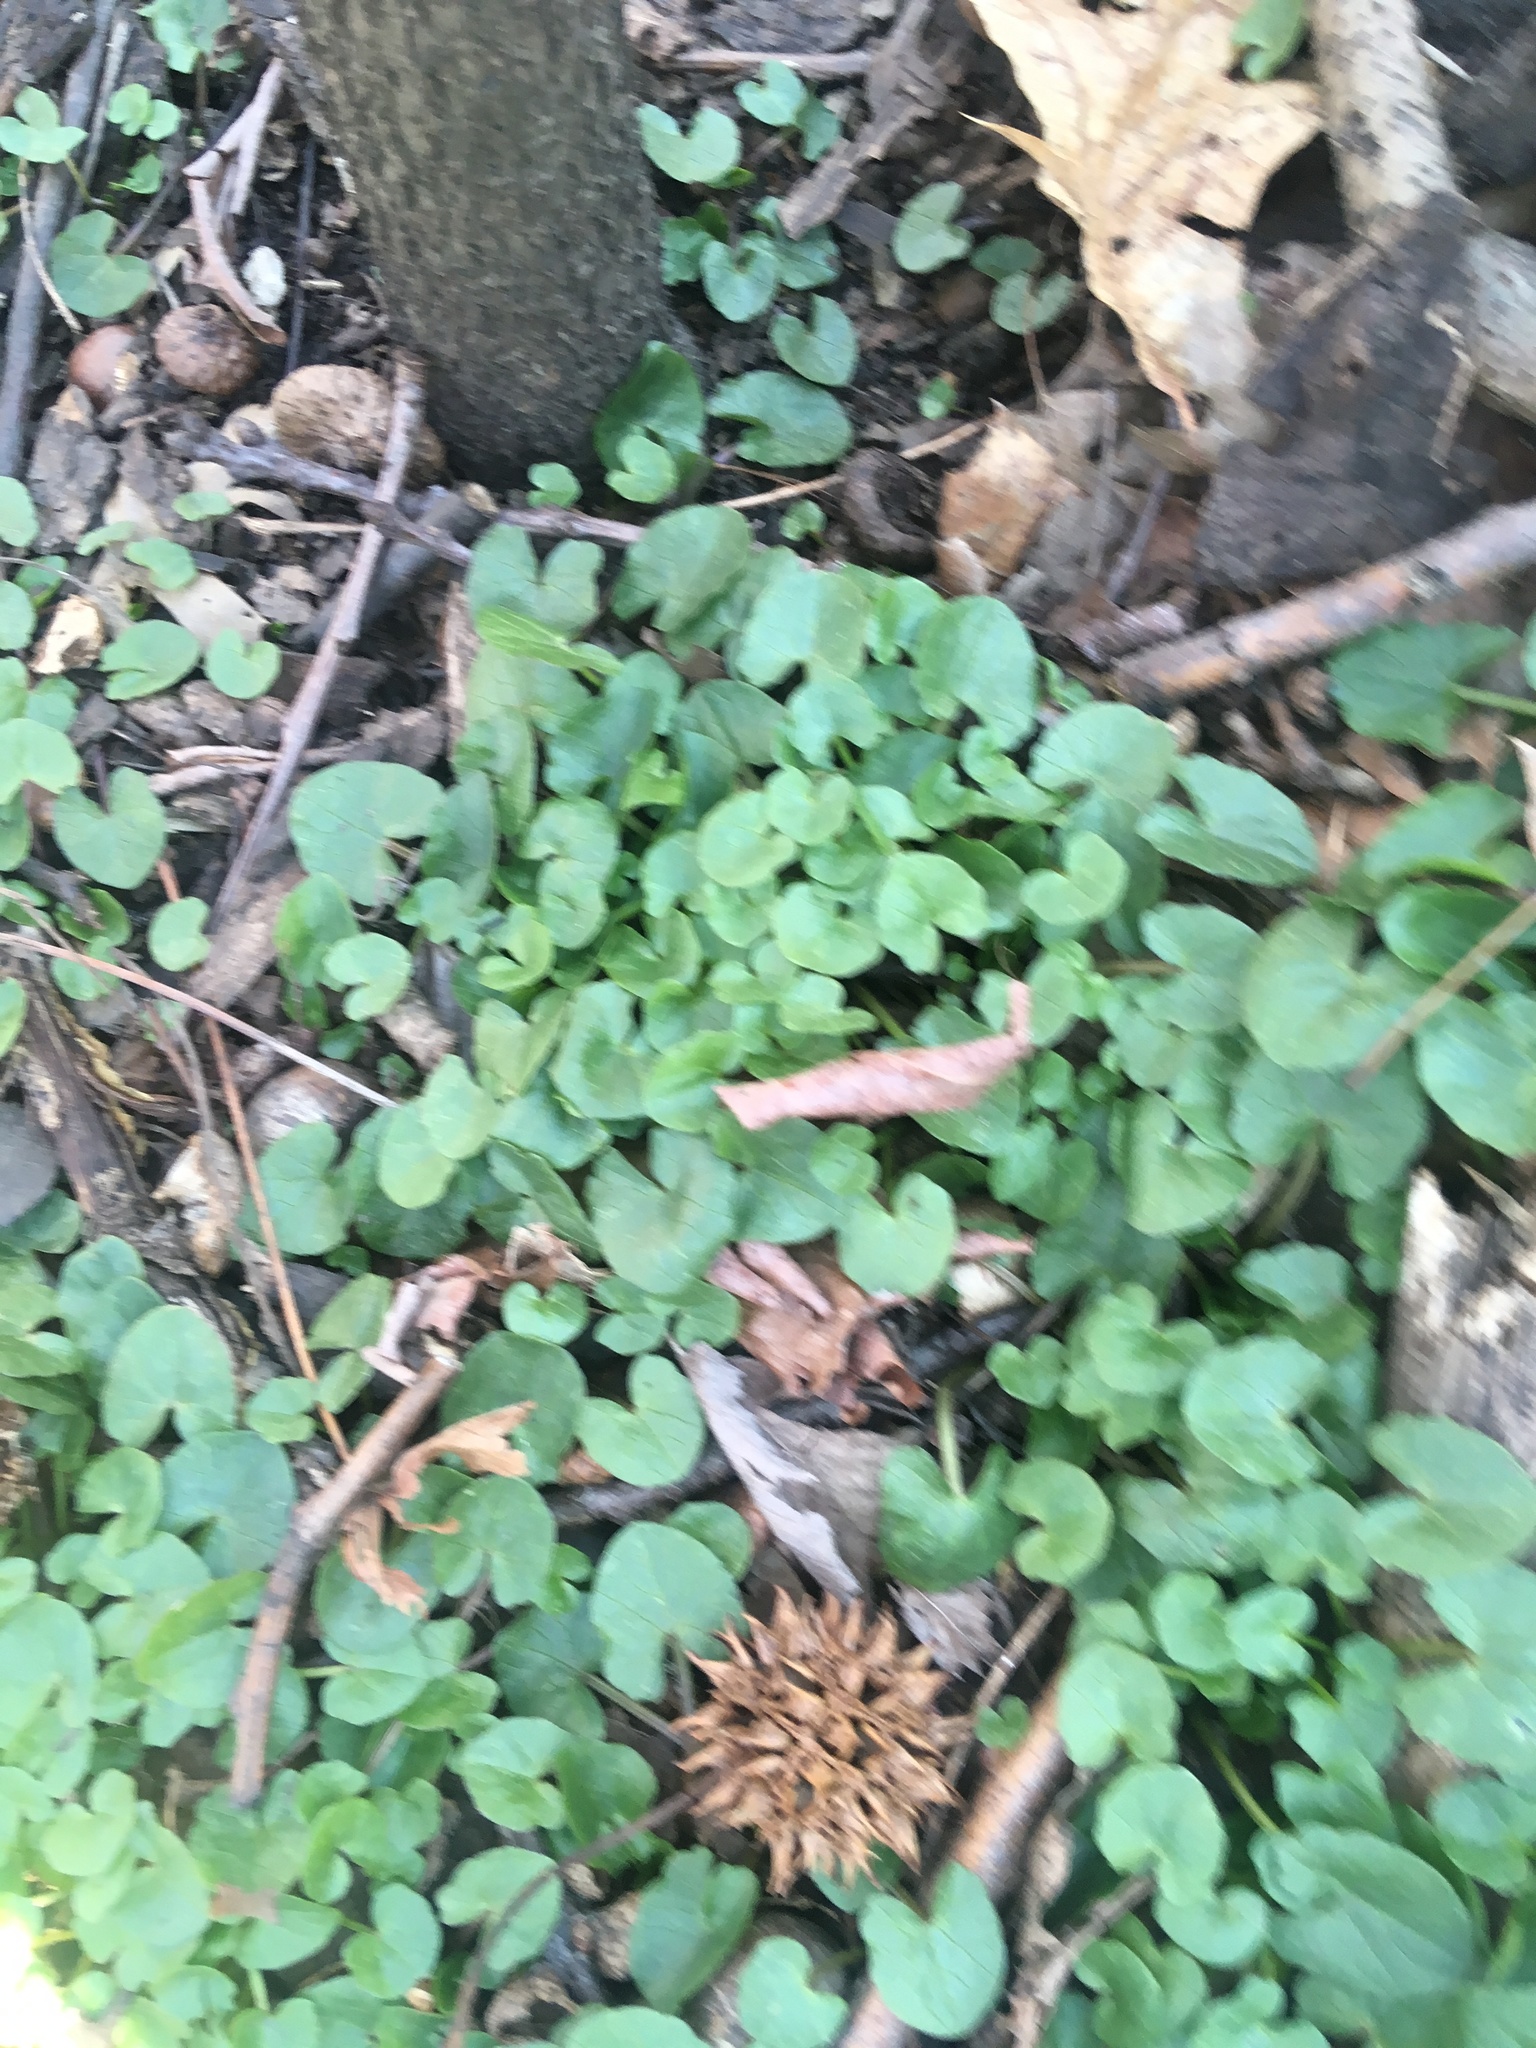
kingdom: Plantae
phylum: Tracheophyta
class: Magnoliopsida
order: Ranunculales
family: Ranunculaceae
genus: Ficaria
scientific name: Ficaria verna
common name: Lesser celandine
